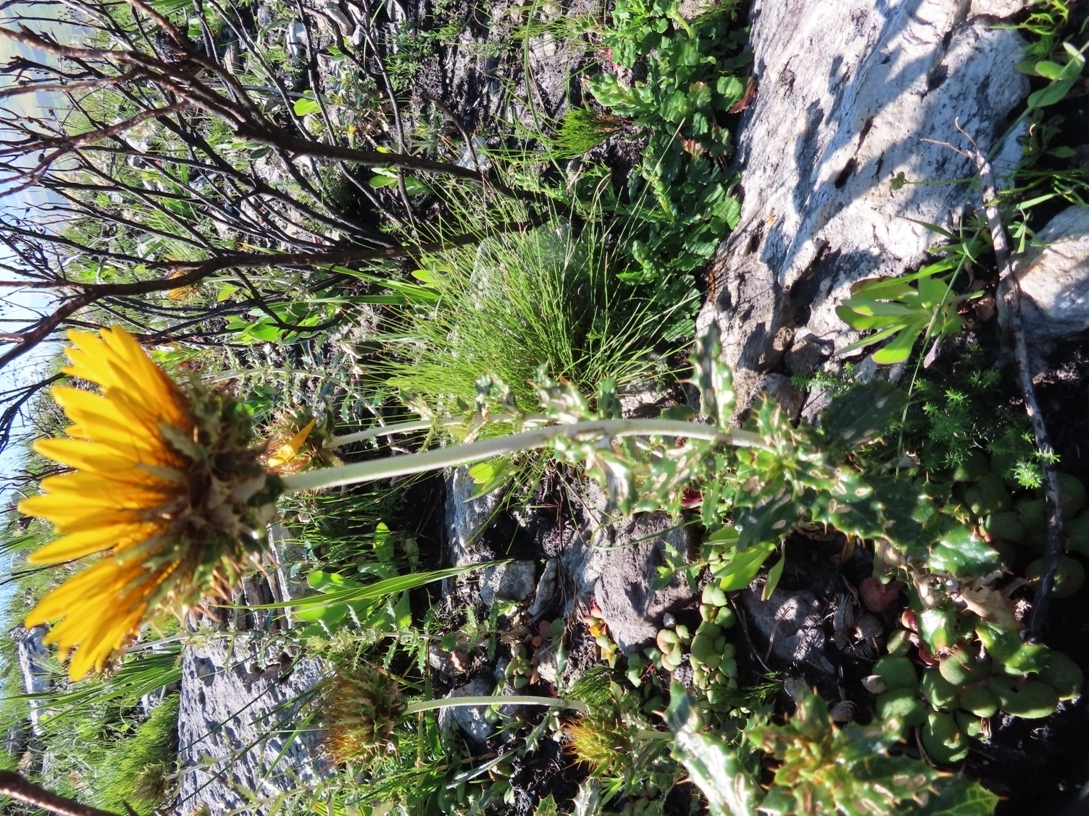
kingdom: Plantae
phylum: Tracheophyta
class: Magnoliopsida
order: Asterales
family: Asteraceae
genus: Berkheya
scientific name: Berkheya barbata
